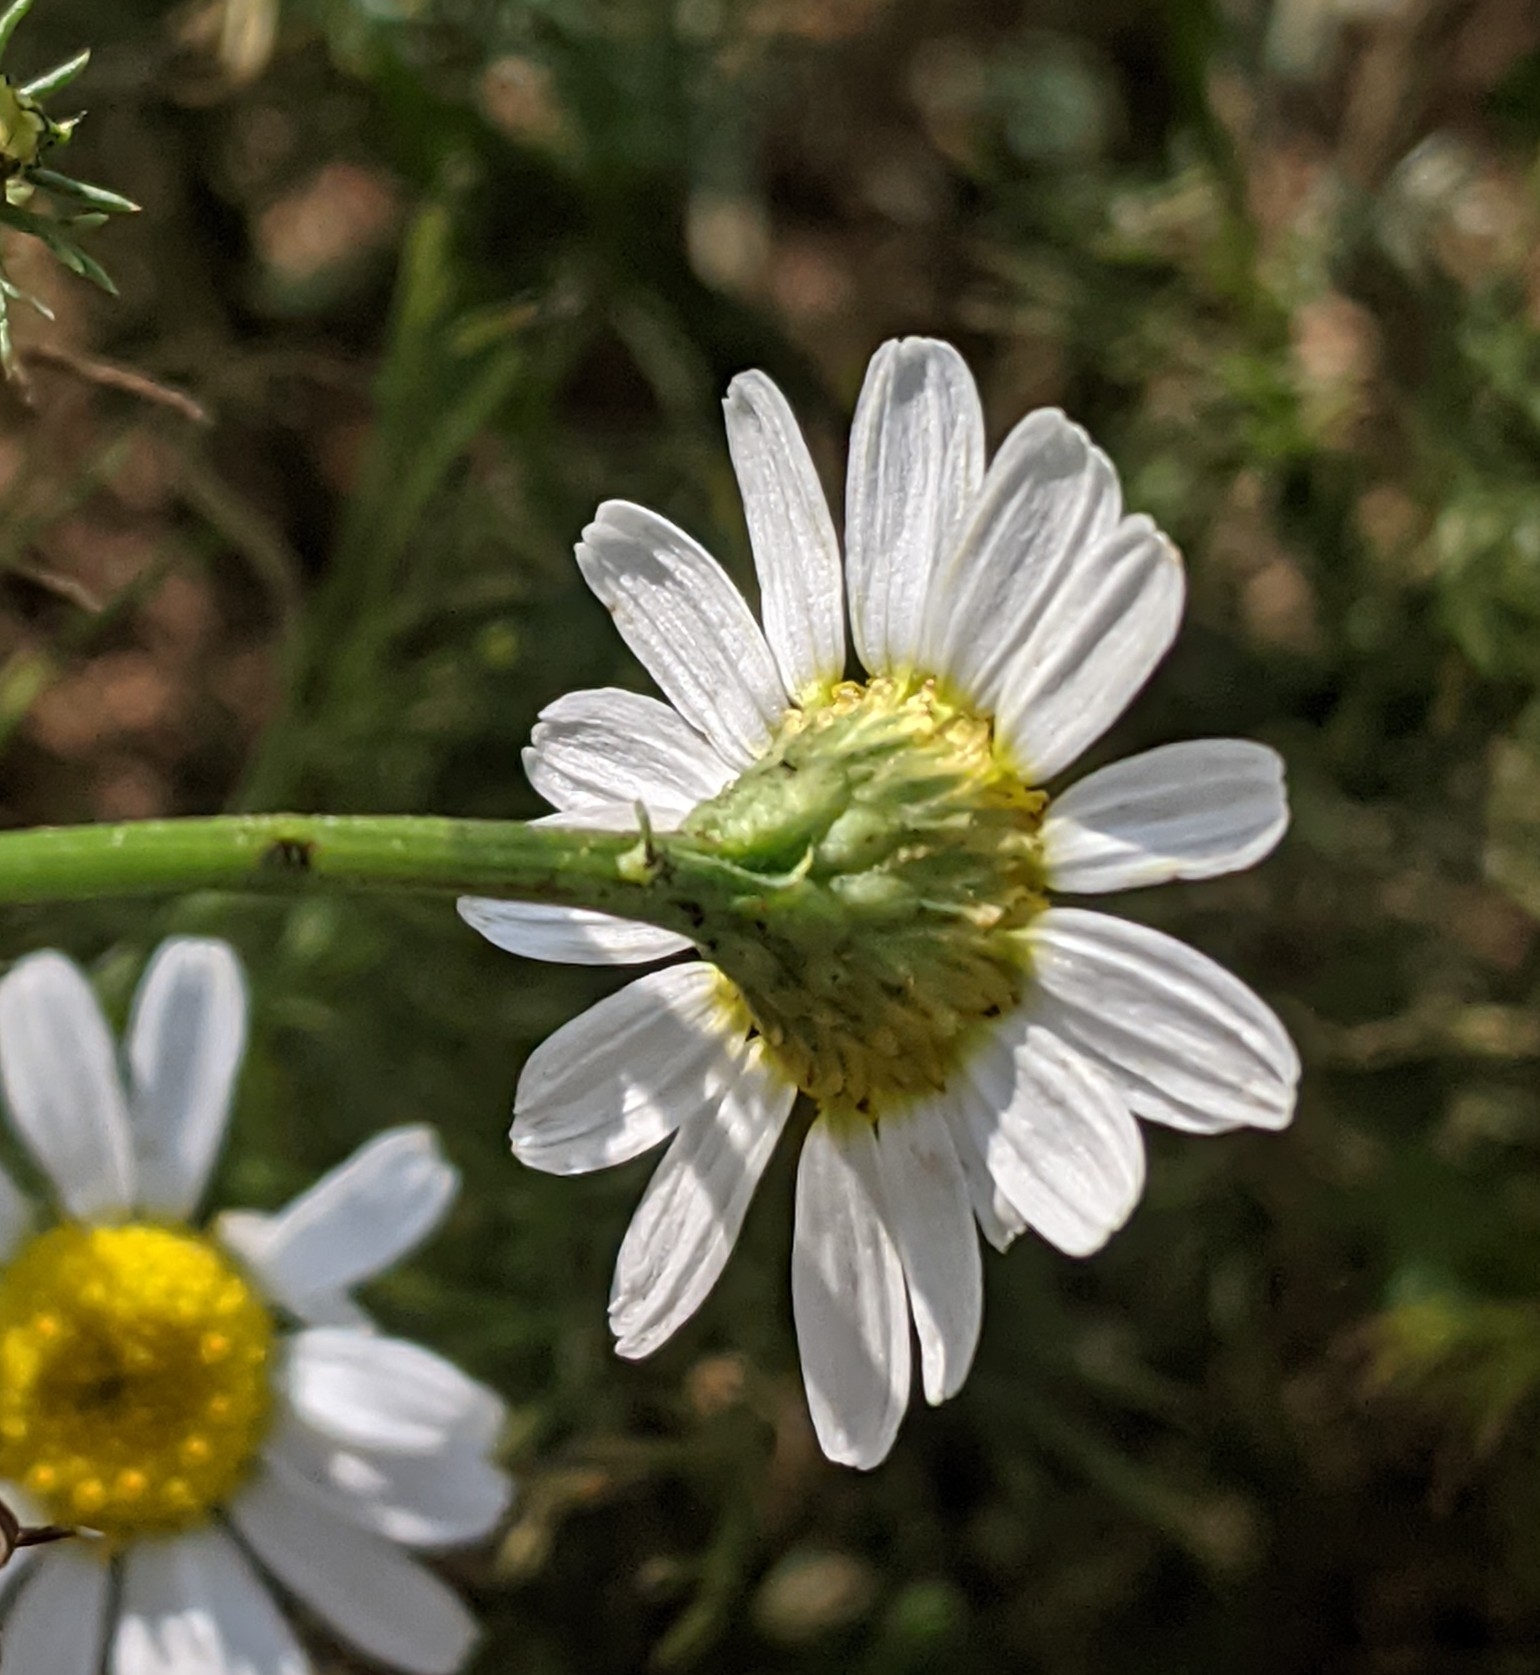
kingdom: Plantae
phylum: Tracheophyta
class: Magnoliopsida
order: Asterales
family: Asteraceae
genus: Tripleurospermum
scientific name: Tripleurospermum inodorum
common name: Scentless mayweed
